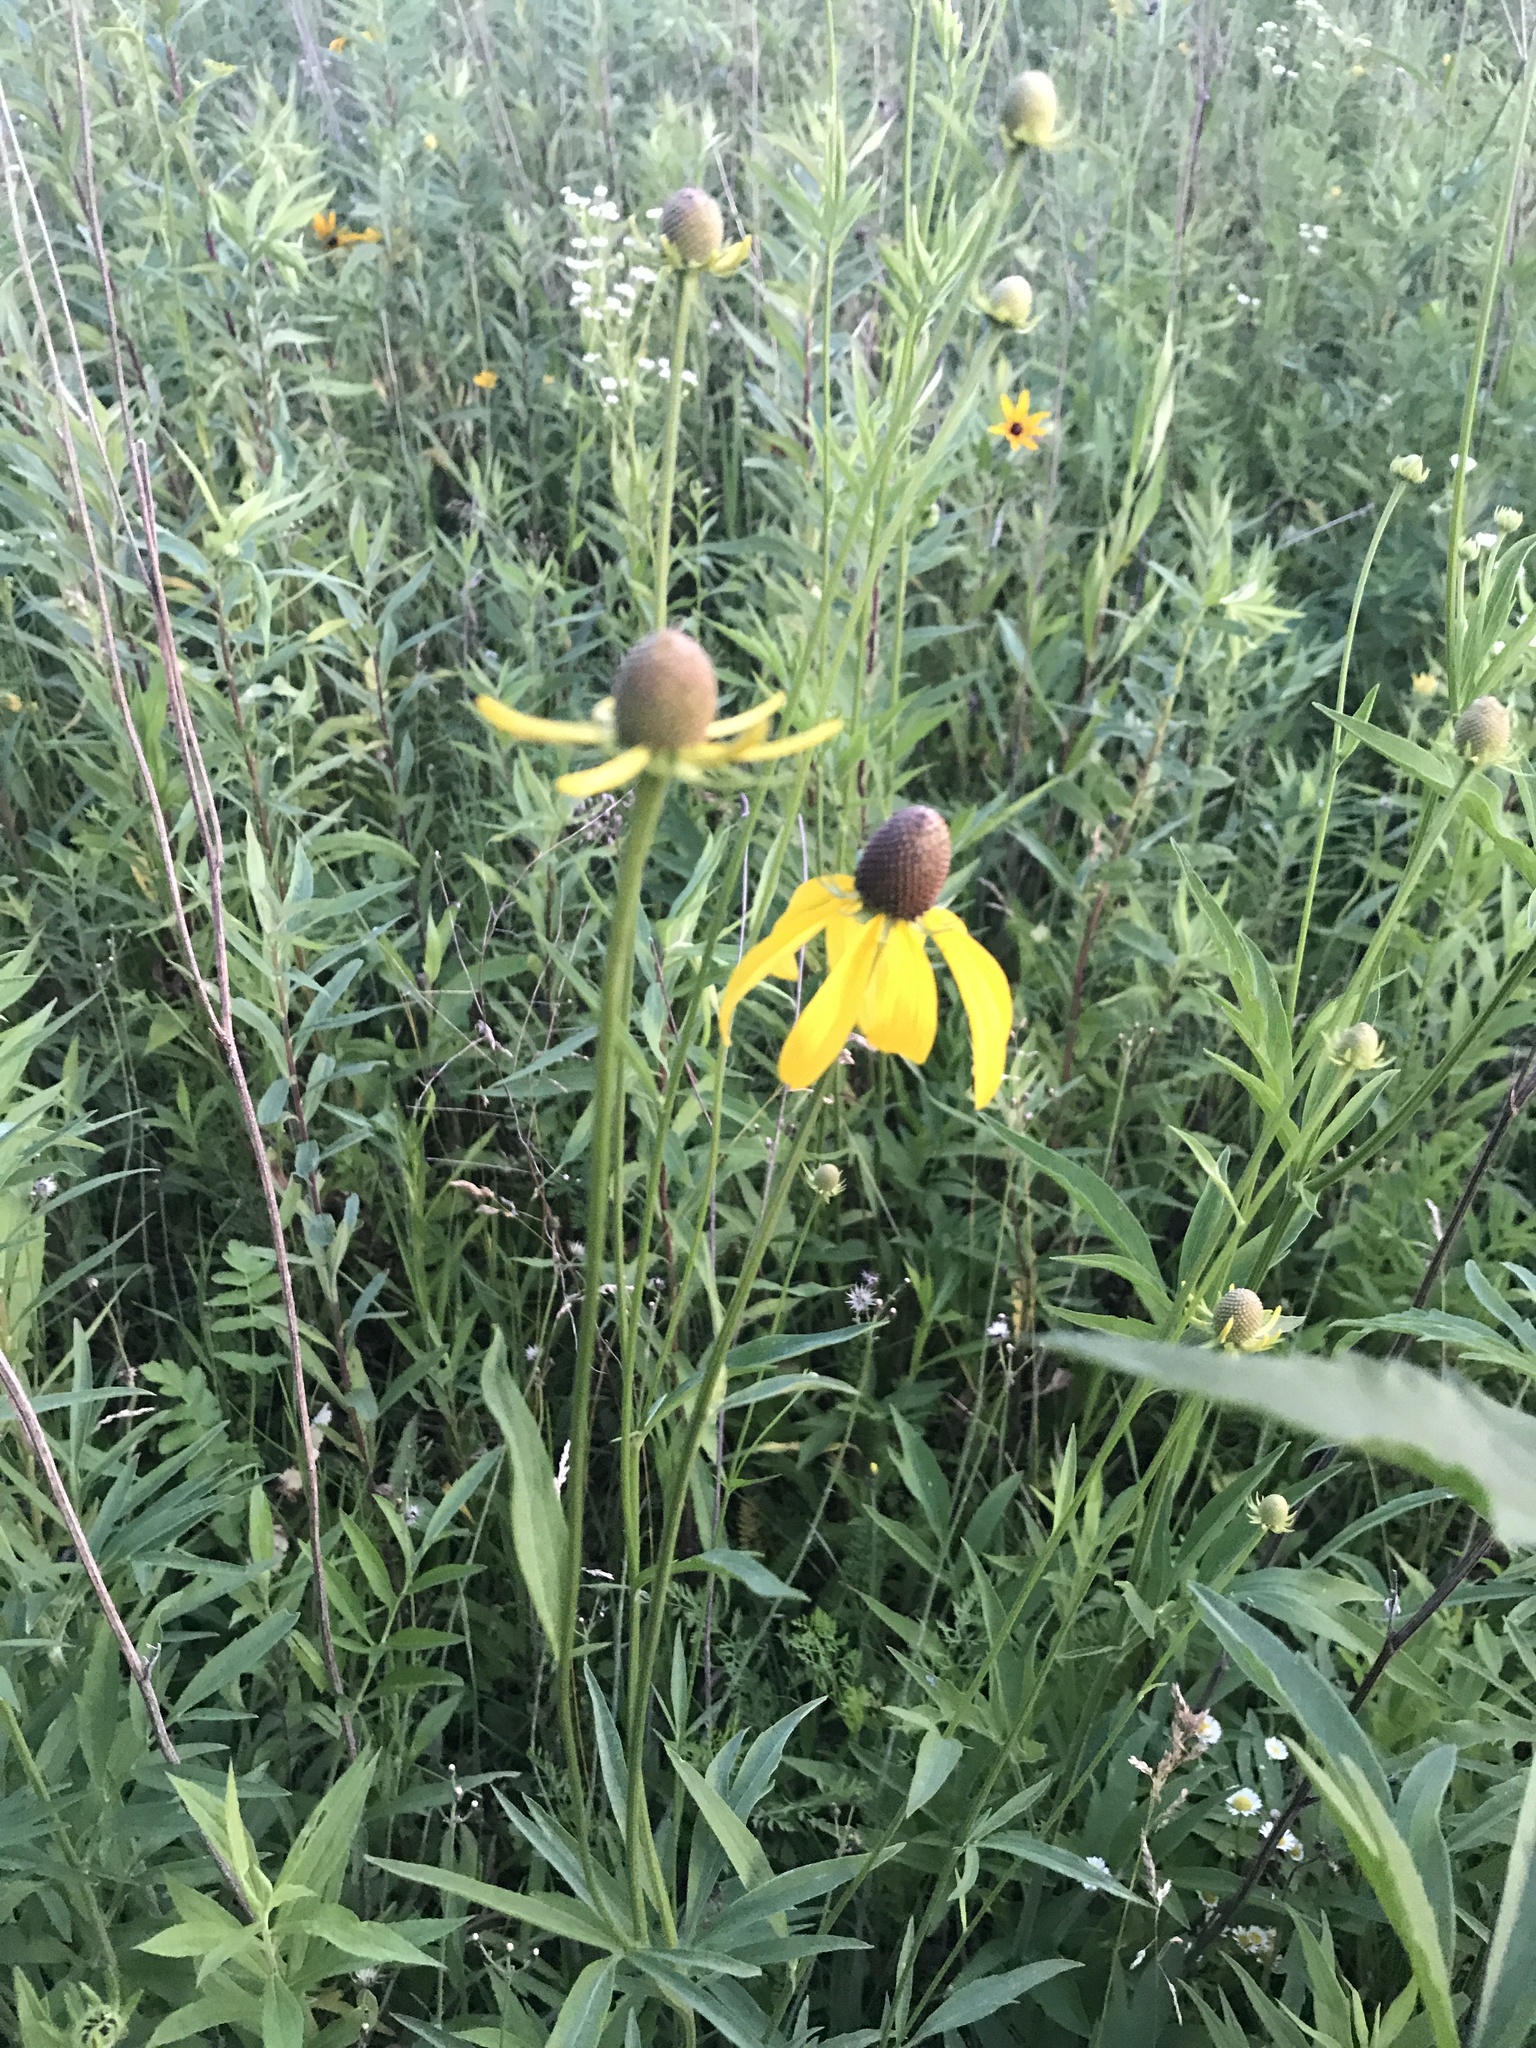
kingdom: Plantae
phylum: Tracheophyta
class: Magnoliopsida
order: Asterales
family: Asteraceae
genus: Ratibida
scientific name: Ratibida pinnata
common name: Drooping prairie-coneflower
